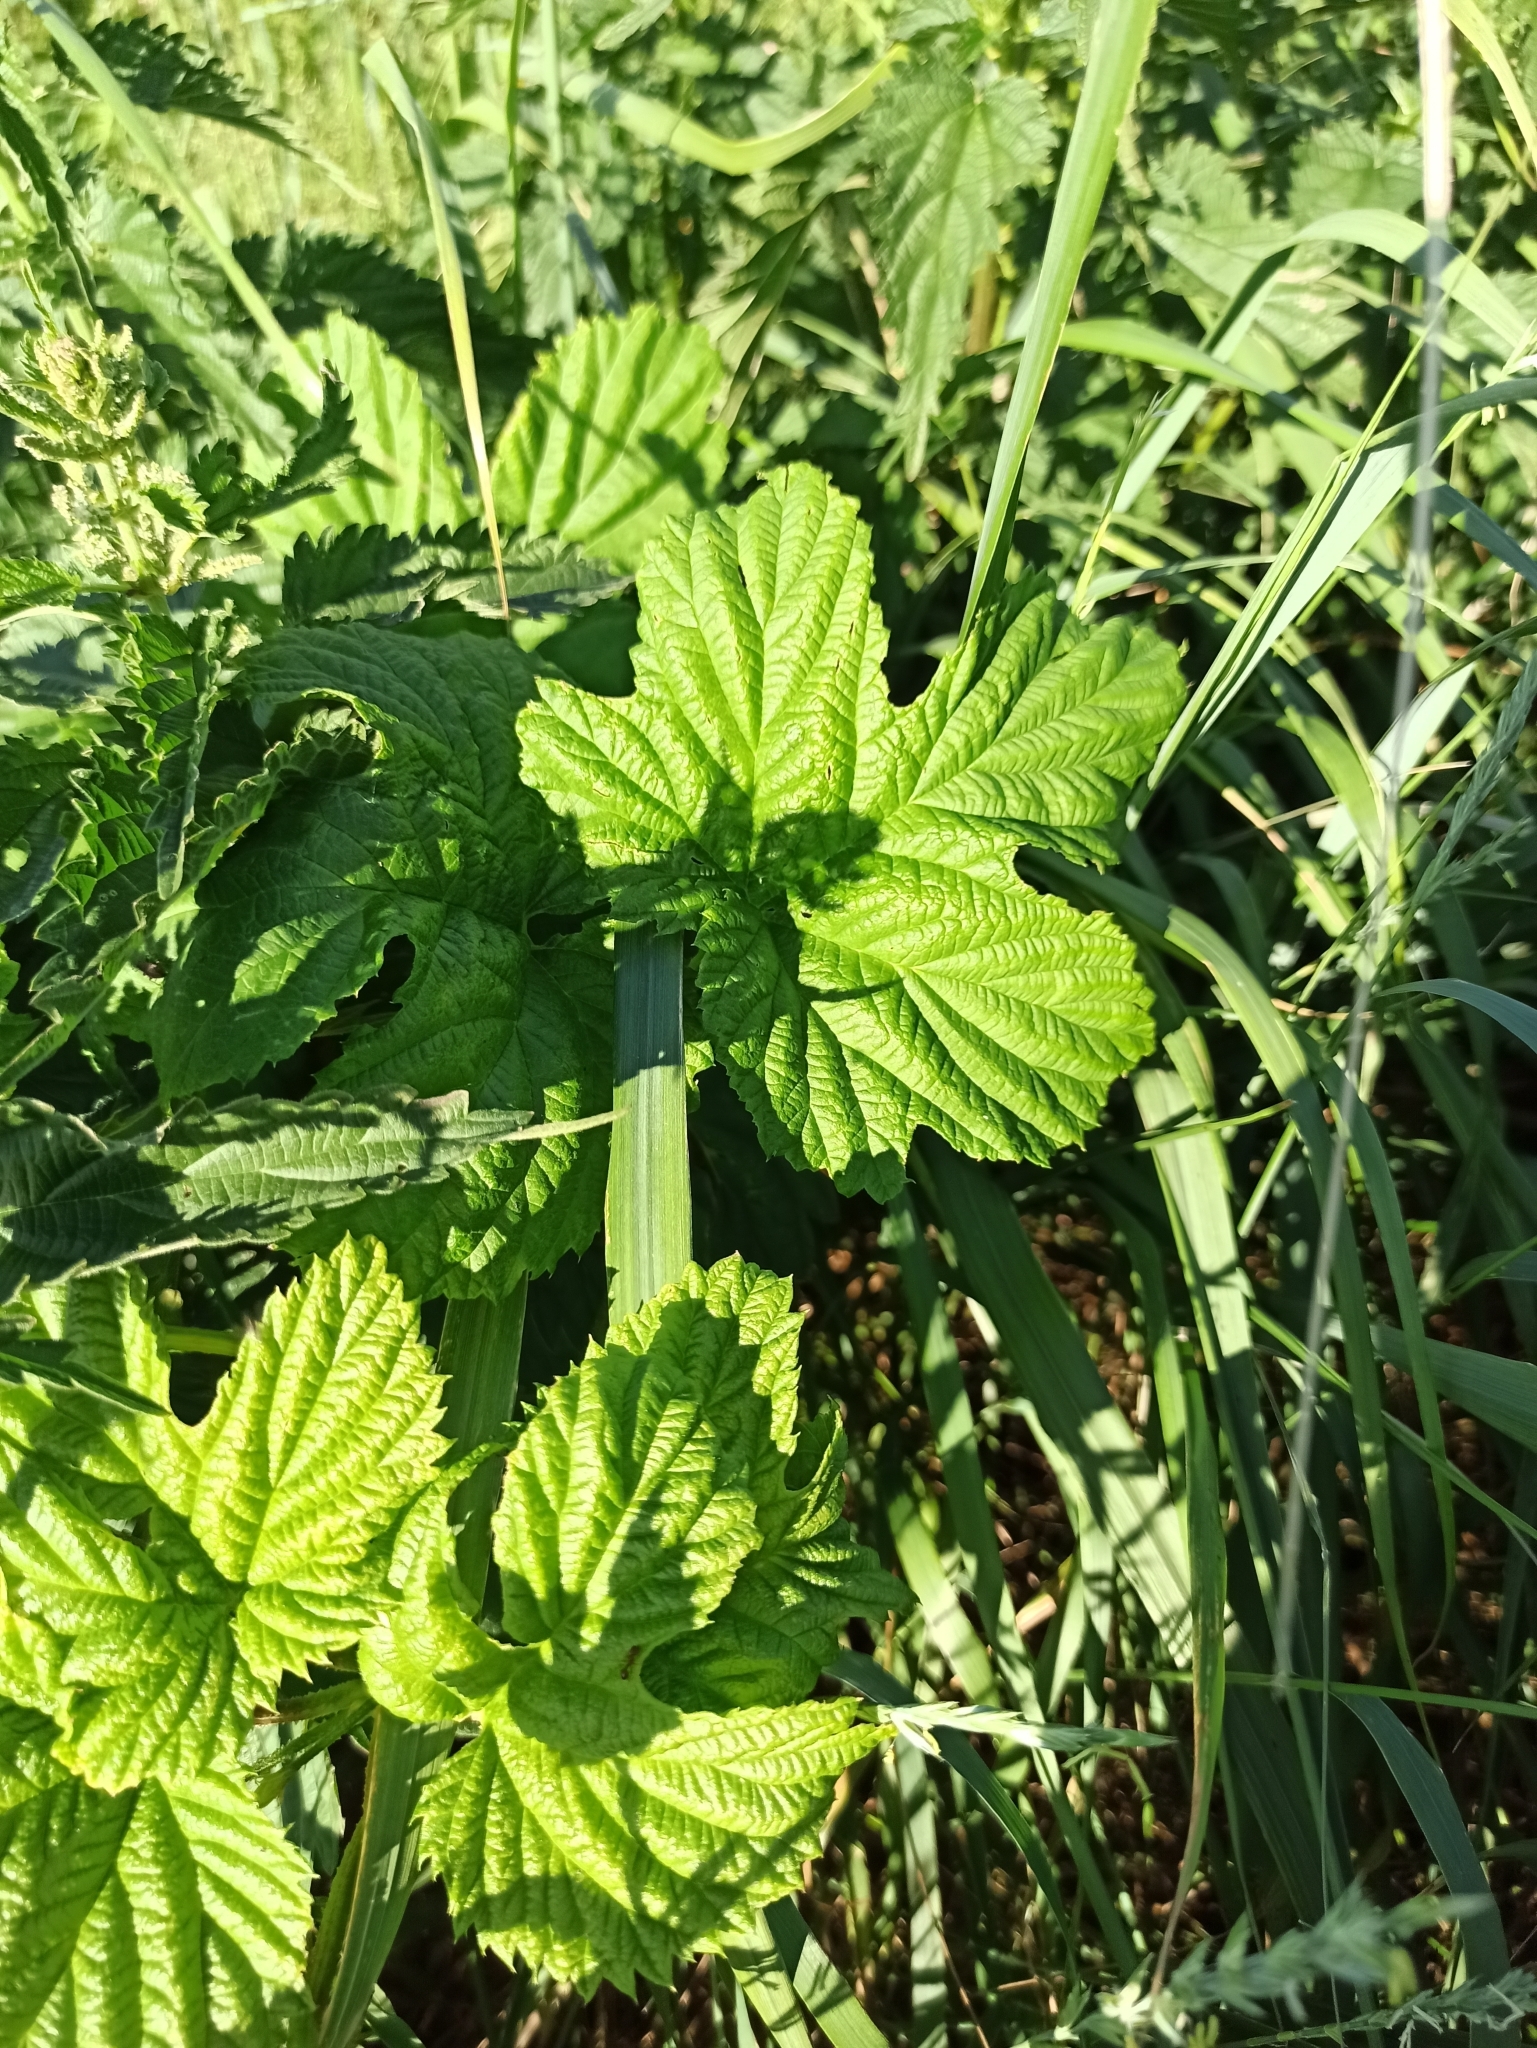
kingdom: Plantae
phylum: Tracheophyta
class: Magnoliopsida
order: Rosales
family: Cannabaceae
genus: Humulus
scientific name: Humulus lupulus
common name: Hop
